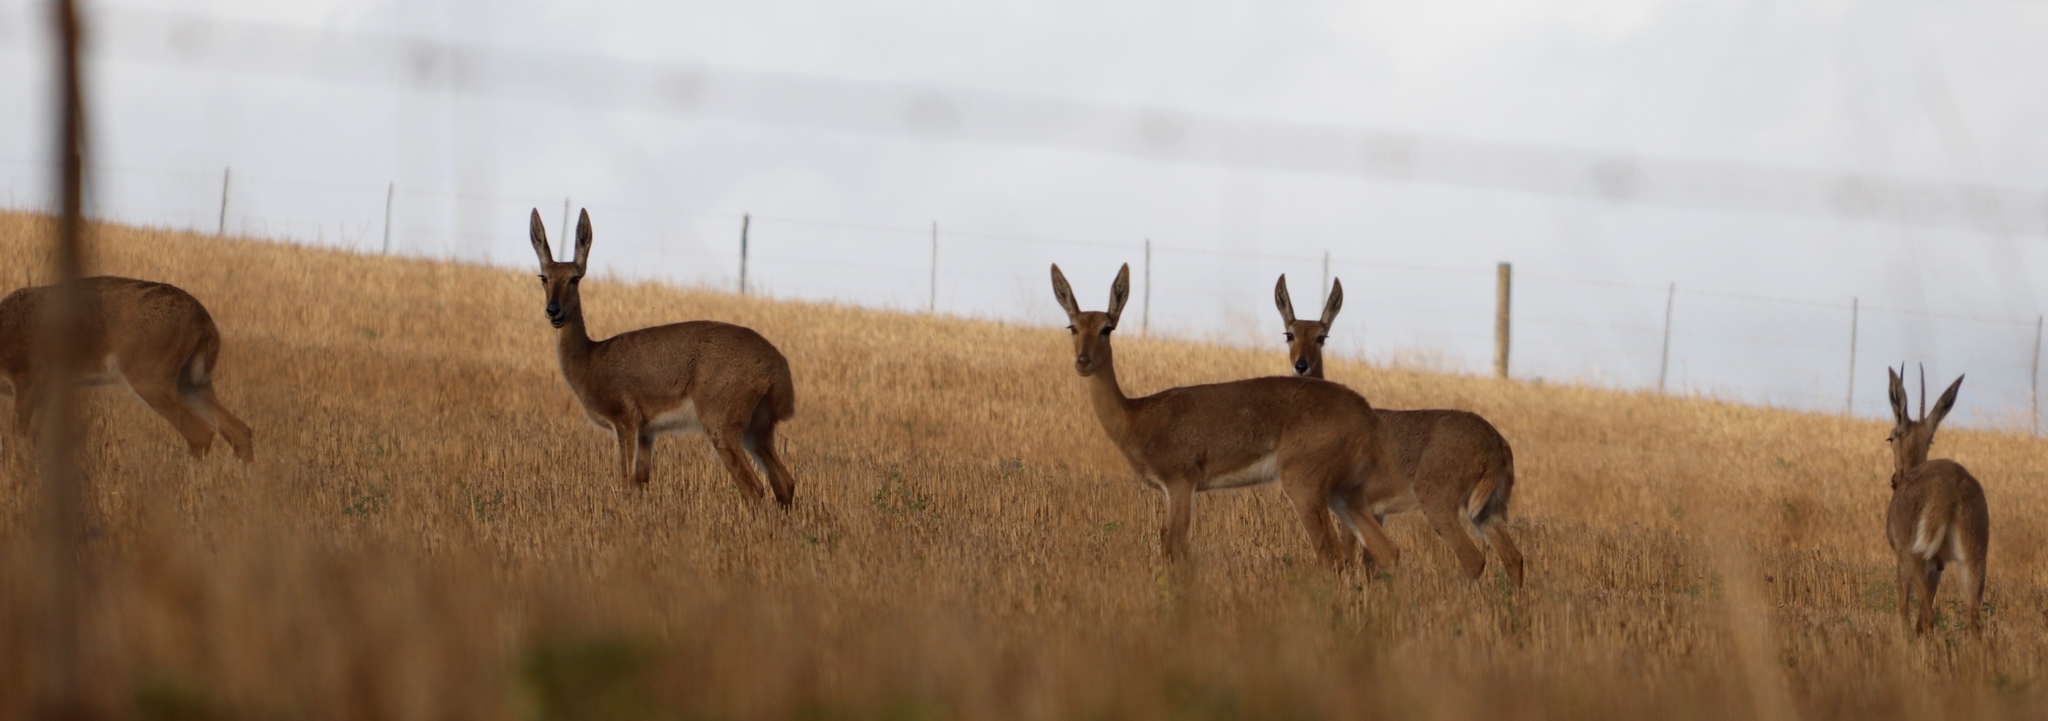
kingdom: Animalia
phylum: Chordata
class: Mammalia
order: Artiodactyla
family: Bovidae
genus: Pelea
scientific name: Pelea capreolus
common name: Common rhebok
